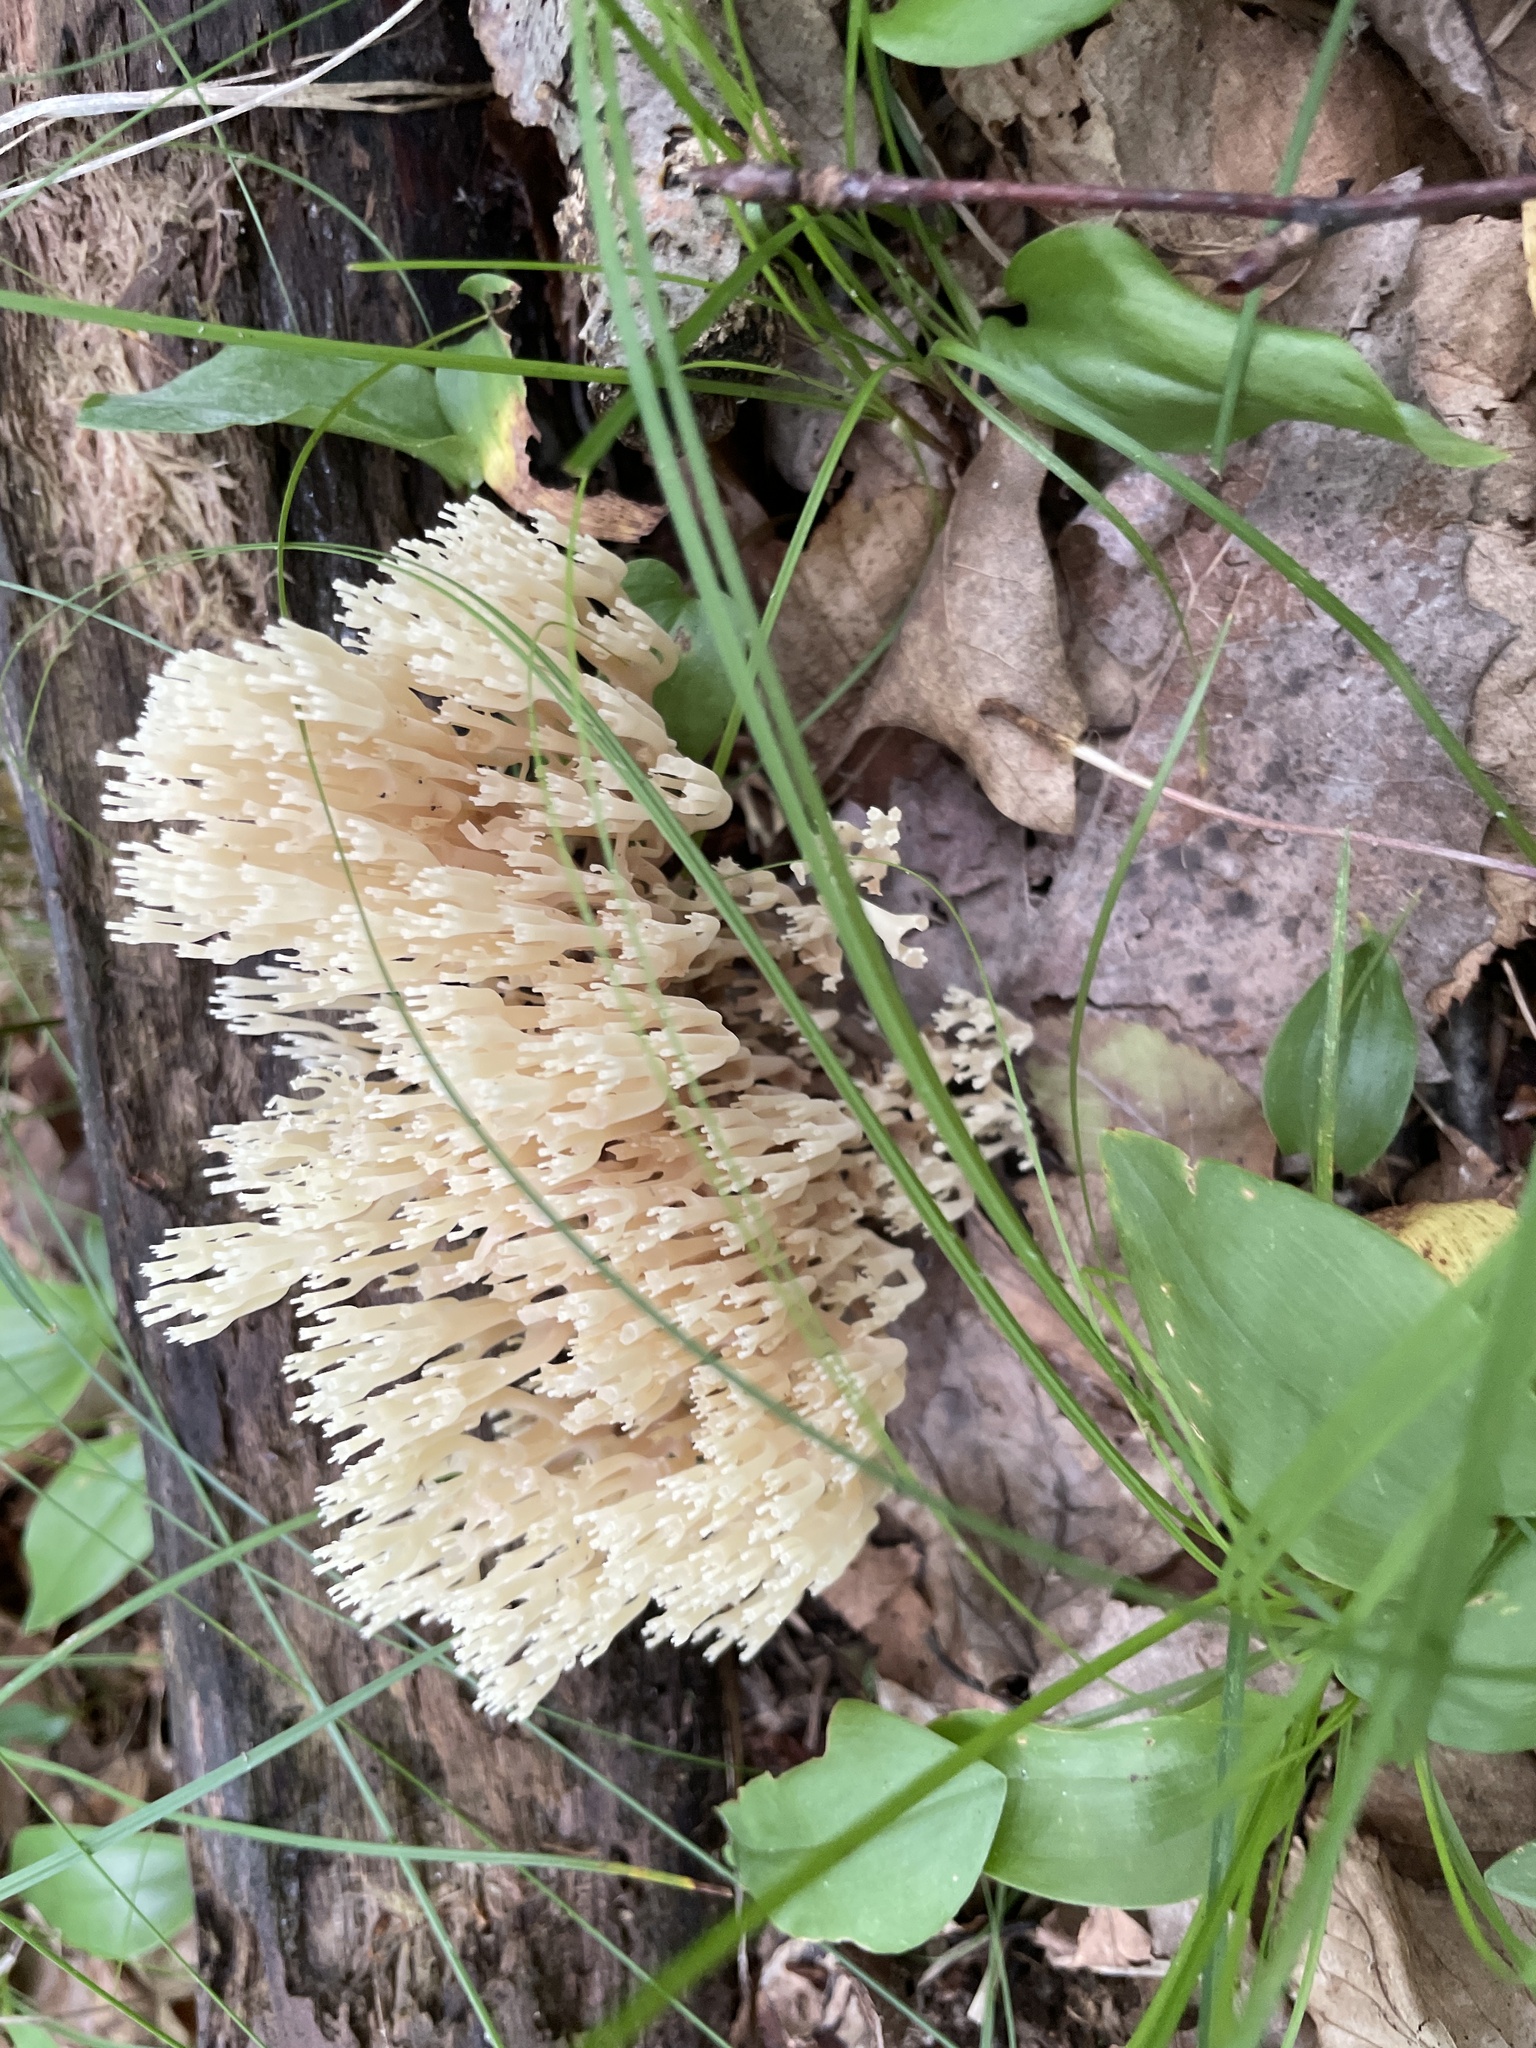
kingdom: Fungi
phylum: Basidiomycota
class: Agaricomycetes
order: Russulales
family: Auriscalpiaceae
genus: Artomyces
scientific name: Artomyces pyxidatus
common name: Crown-tipped coral fungus
